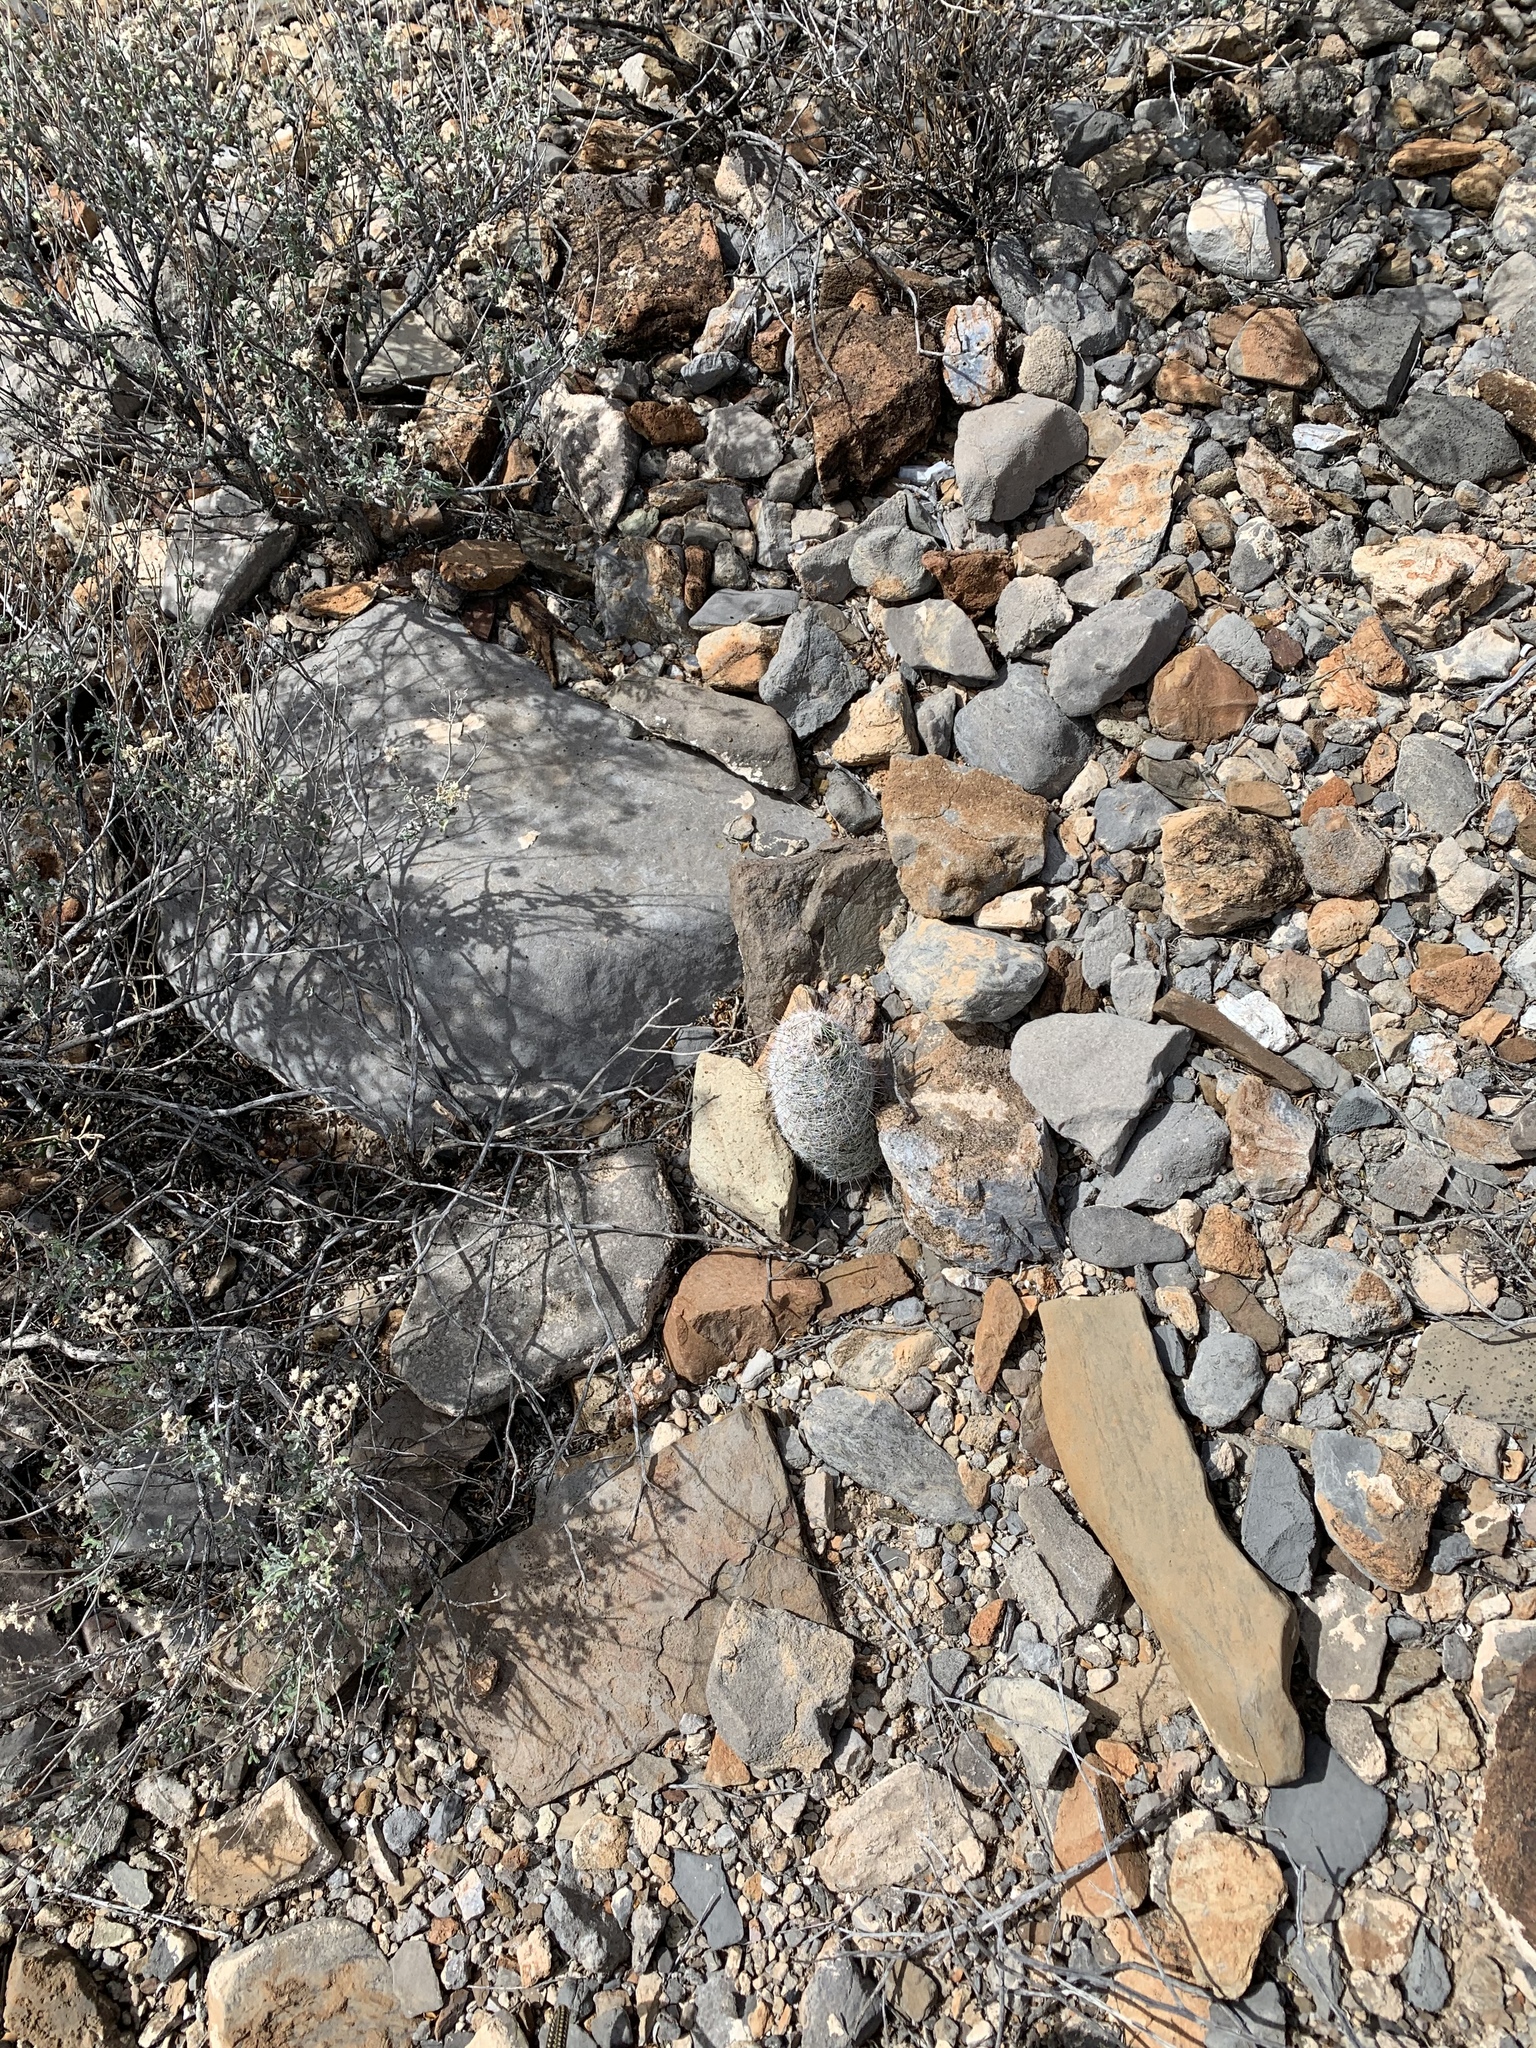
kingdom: Plantae
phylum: Tracheophyta
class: Magnoliopsida
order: Caryophyllales
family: Cactaceae
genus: Cochemiea
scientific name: Cochemiea grahamii
